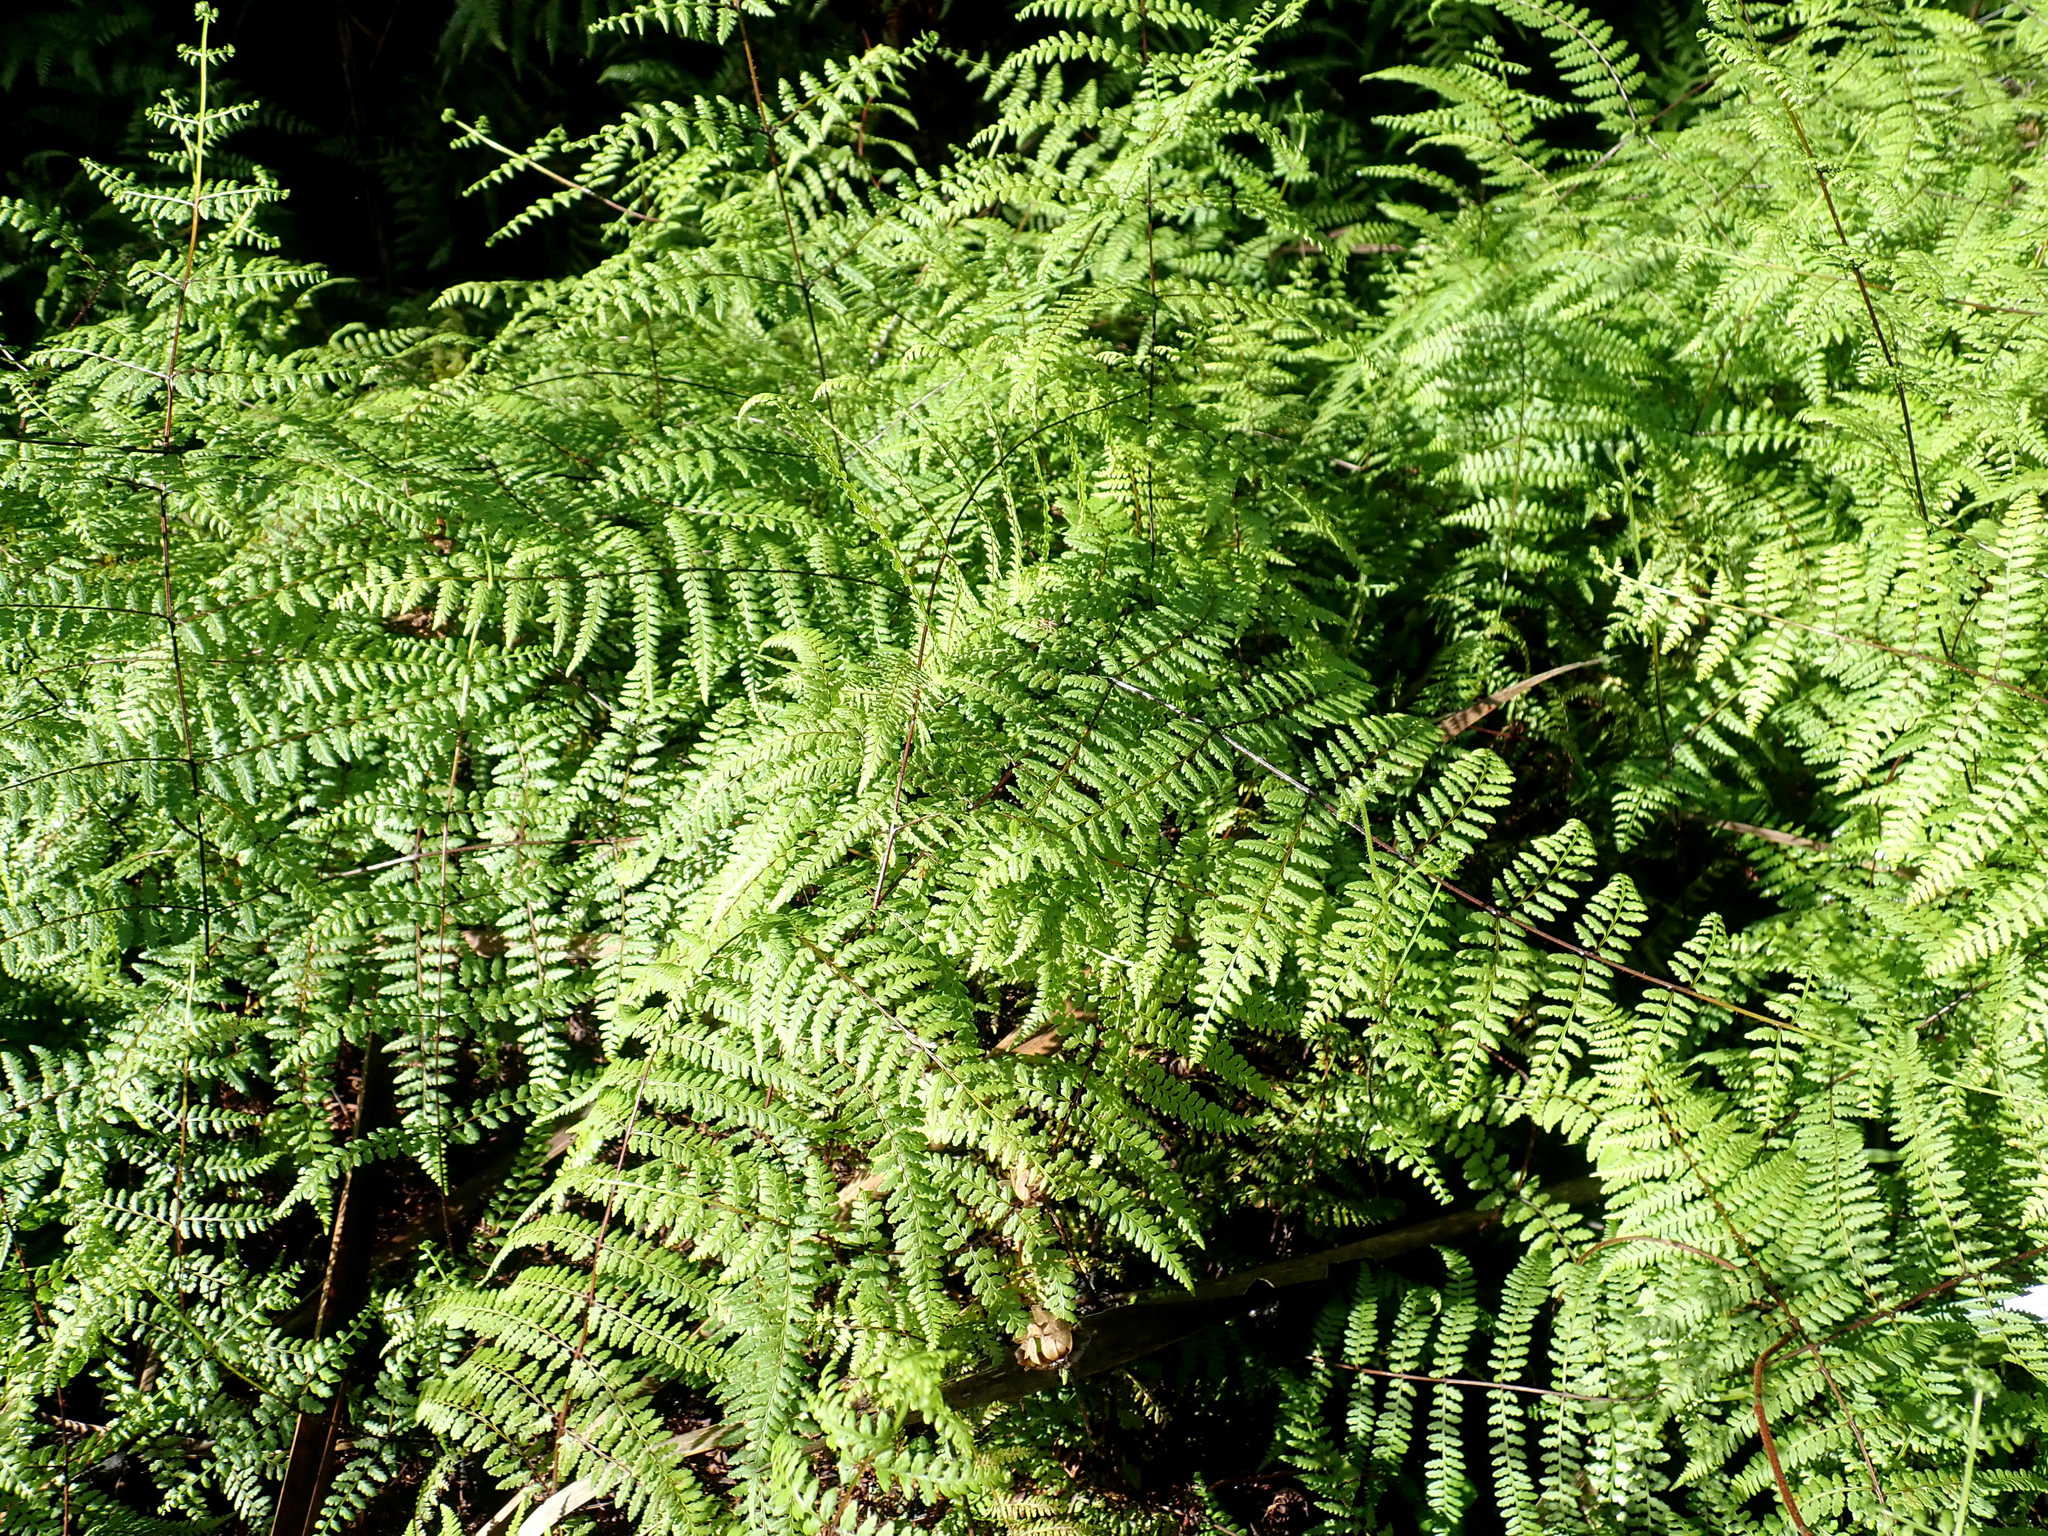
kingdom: Plantae
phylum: Tracheophyta
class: Polypodiopsida
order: Polypodiales
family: Dennstaedtiaceae
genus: Hiya
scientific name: Hiya distans
